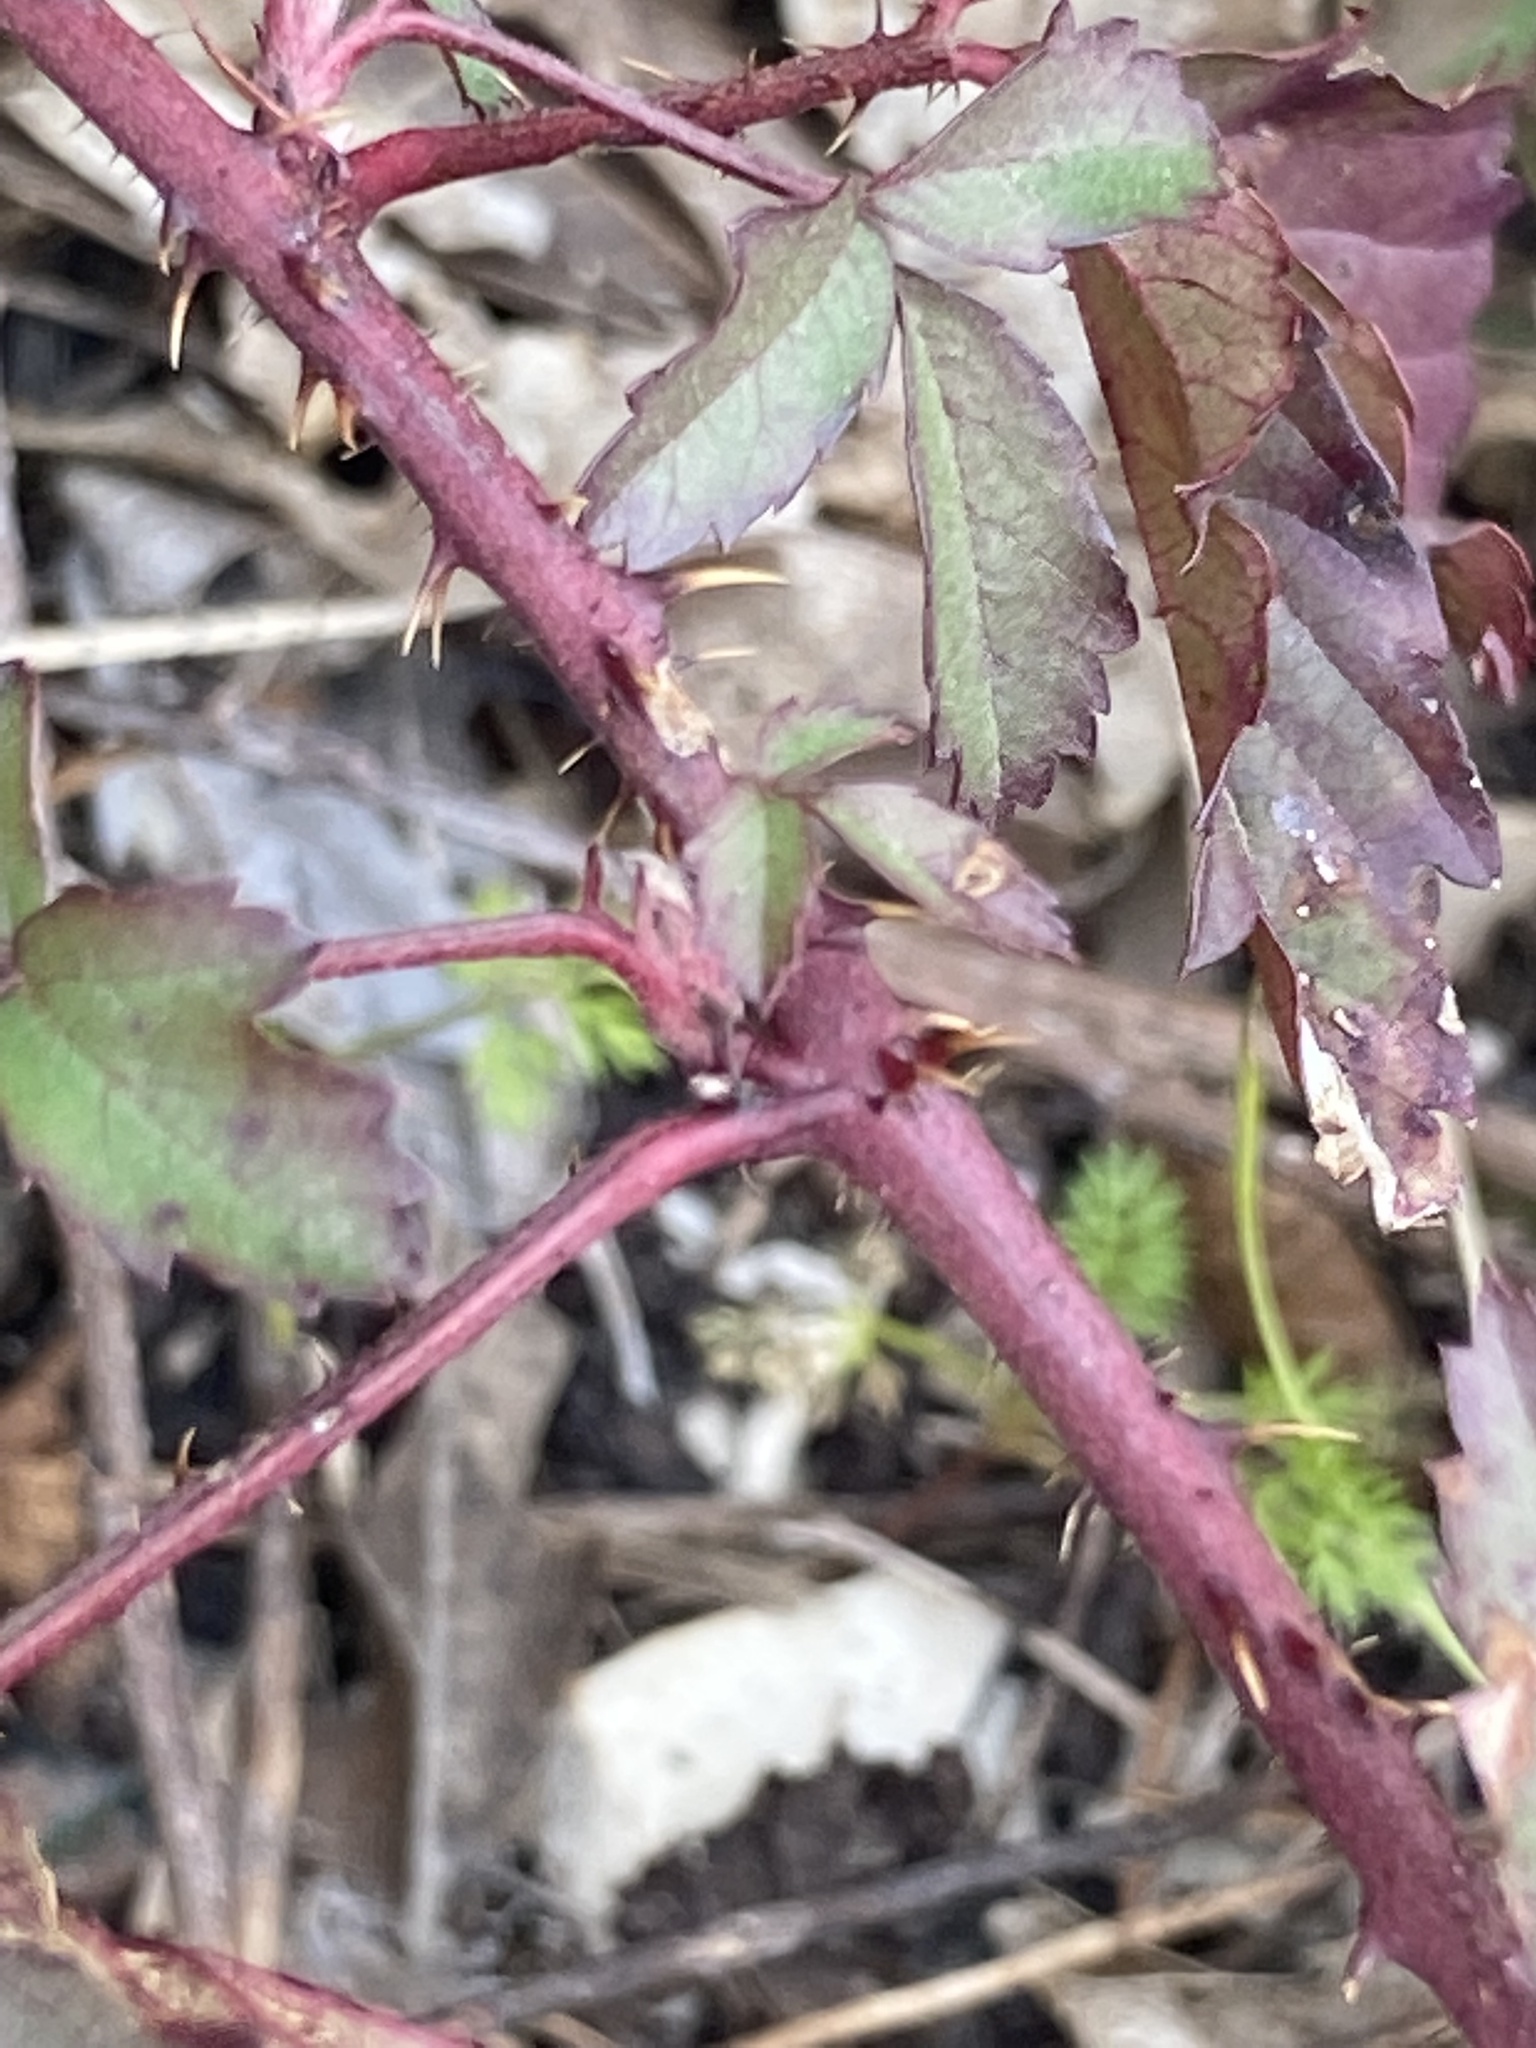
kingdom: Plantae
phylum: Tracheophyta
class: Magnoliopsida
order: Rosales
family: Rosaceae
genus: Rubus
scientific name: Rubus trivialis
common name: Southern dewberry
